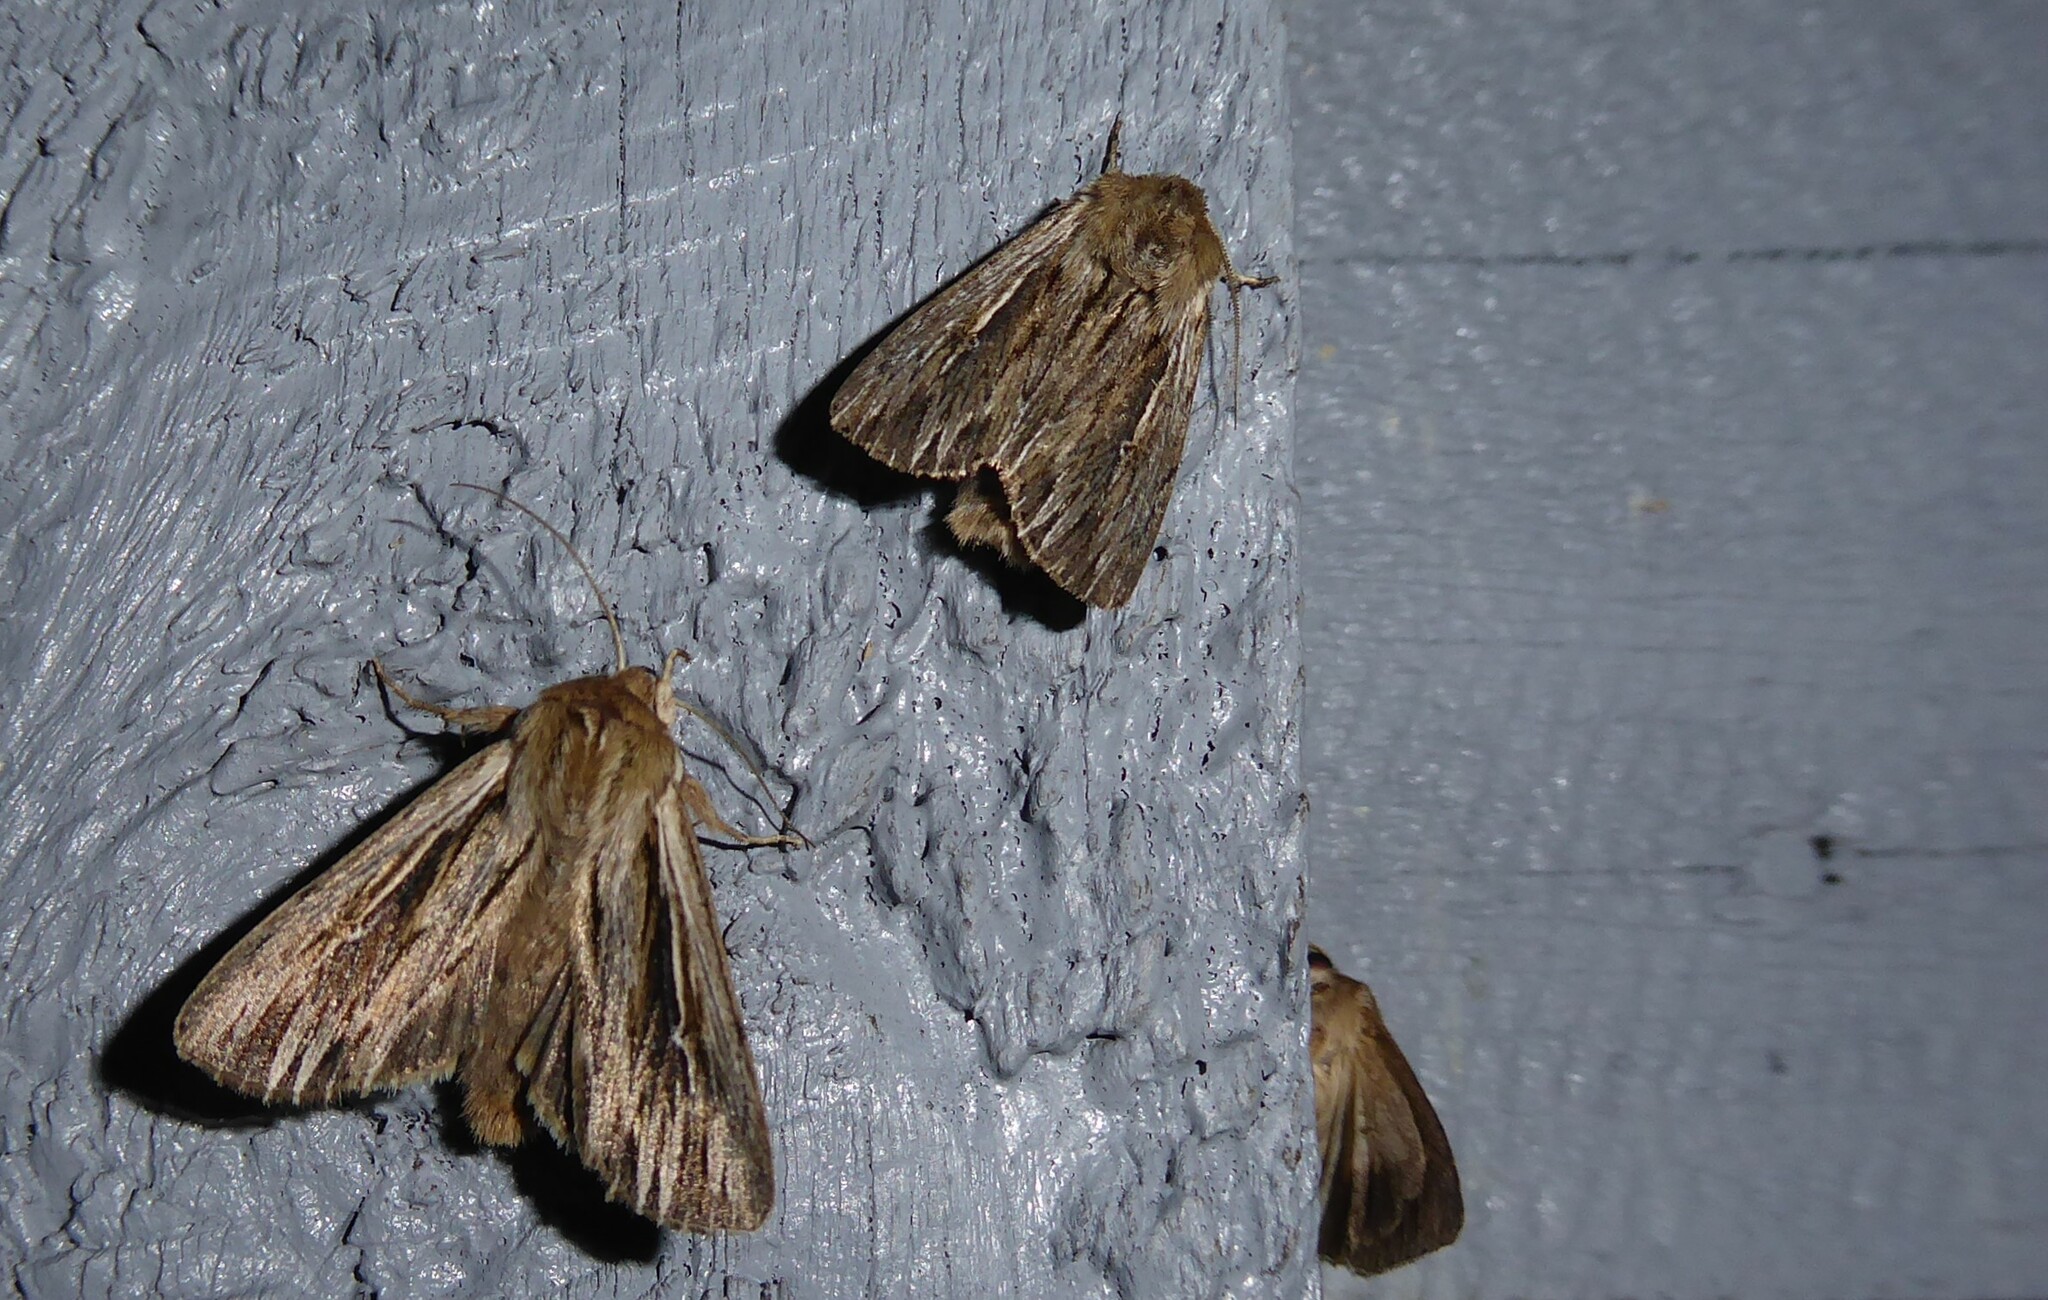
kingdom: Animalia
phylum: Arthropoda
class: Insecta
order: Lepidoptera
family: Noctuidae
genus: Persectania
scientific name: Persectania aversa
